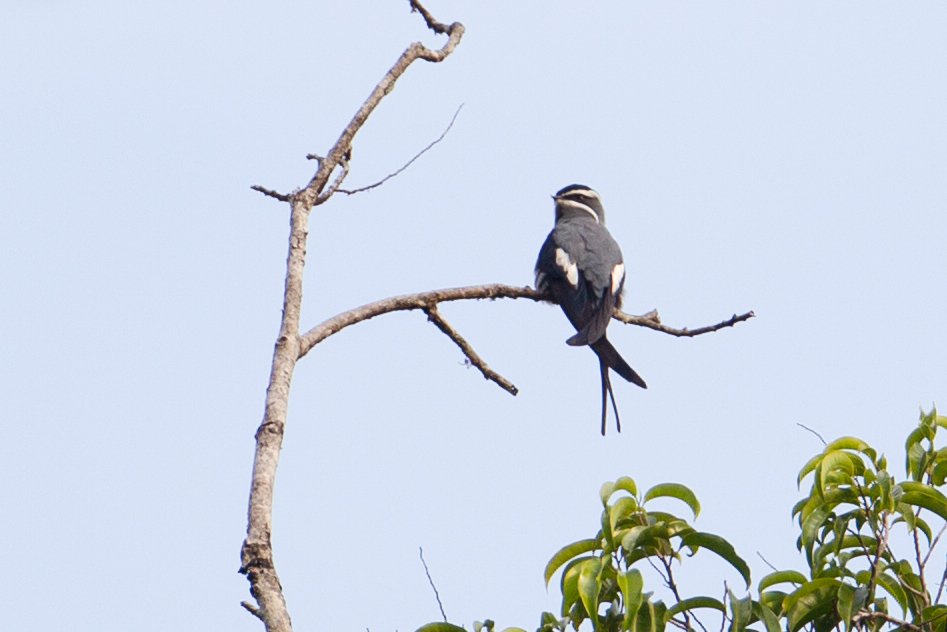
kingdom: Animalia
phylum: Chordata
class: Aves
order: Apodiformes
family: Hemiprocnidae
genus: Hemiprocne
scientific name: Hemiprocne mystacea
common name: Moustached treeswift
